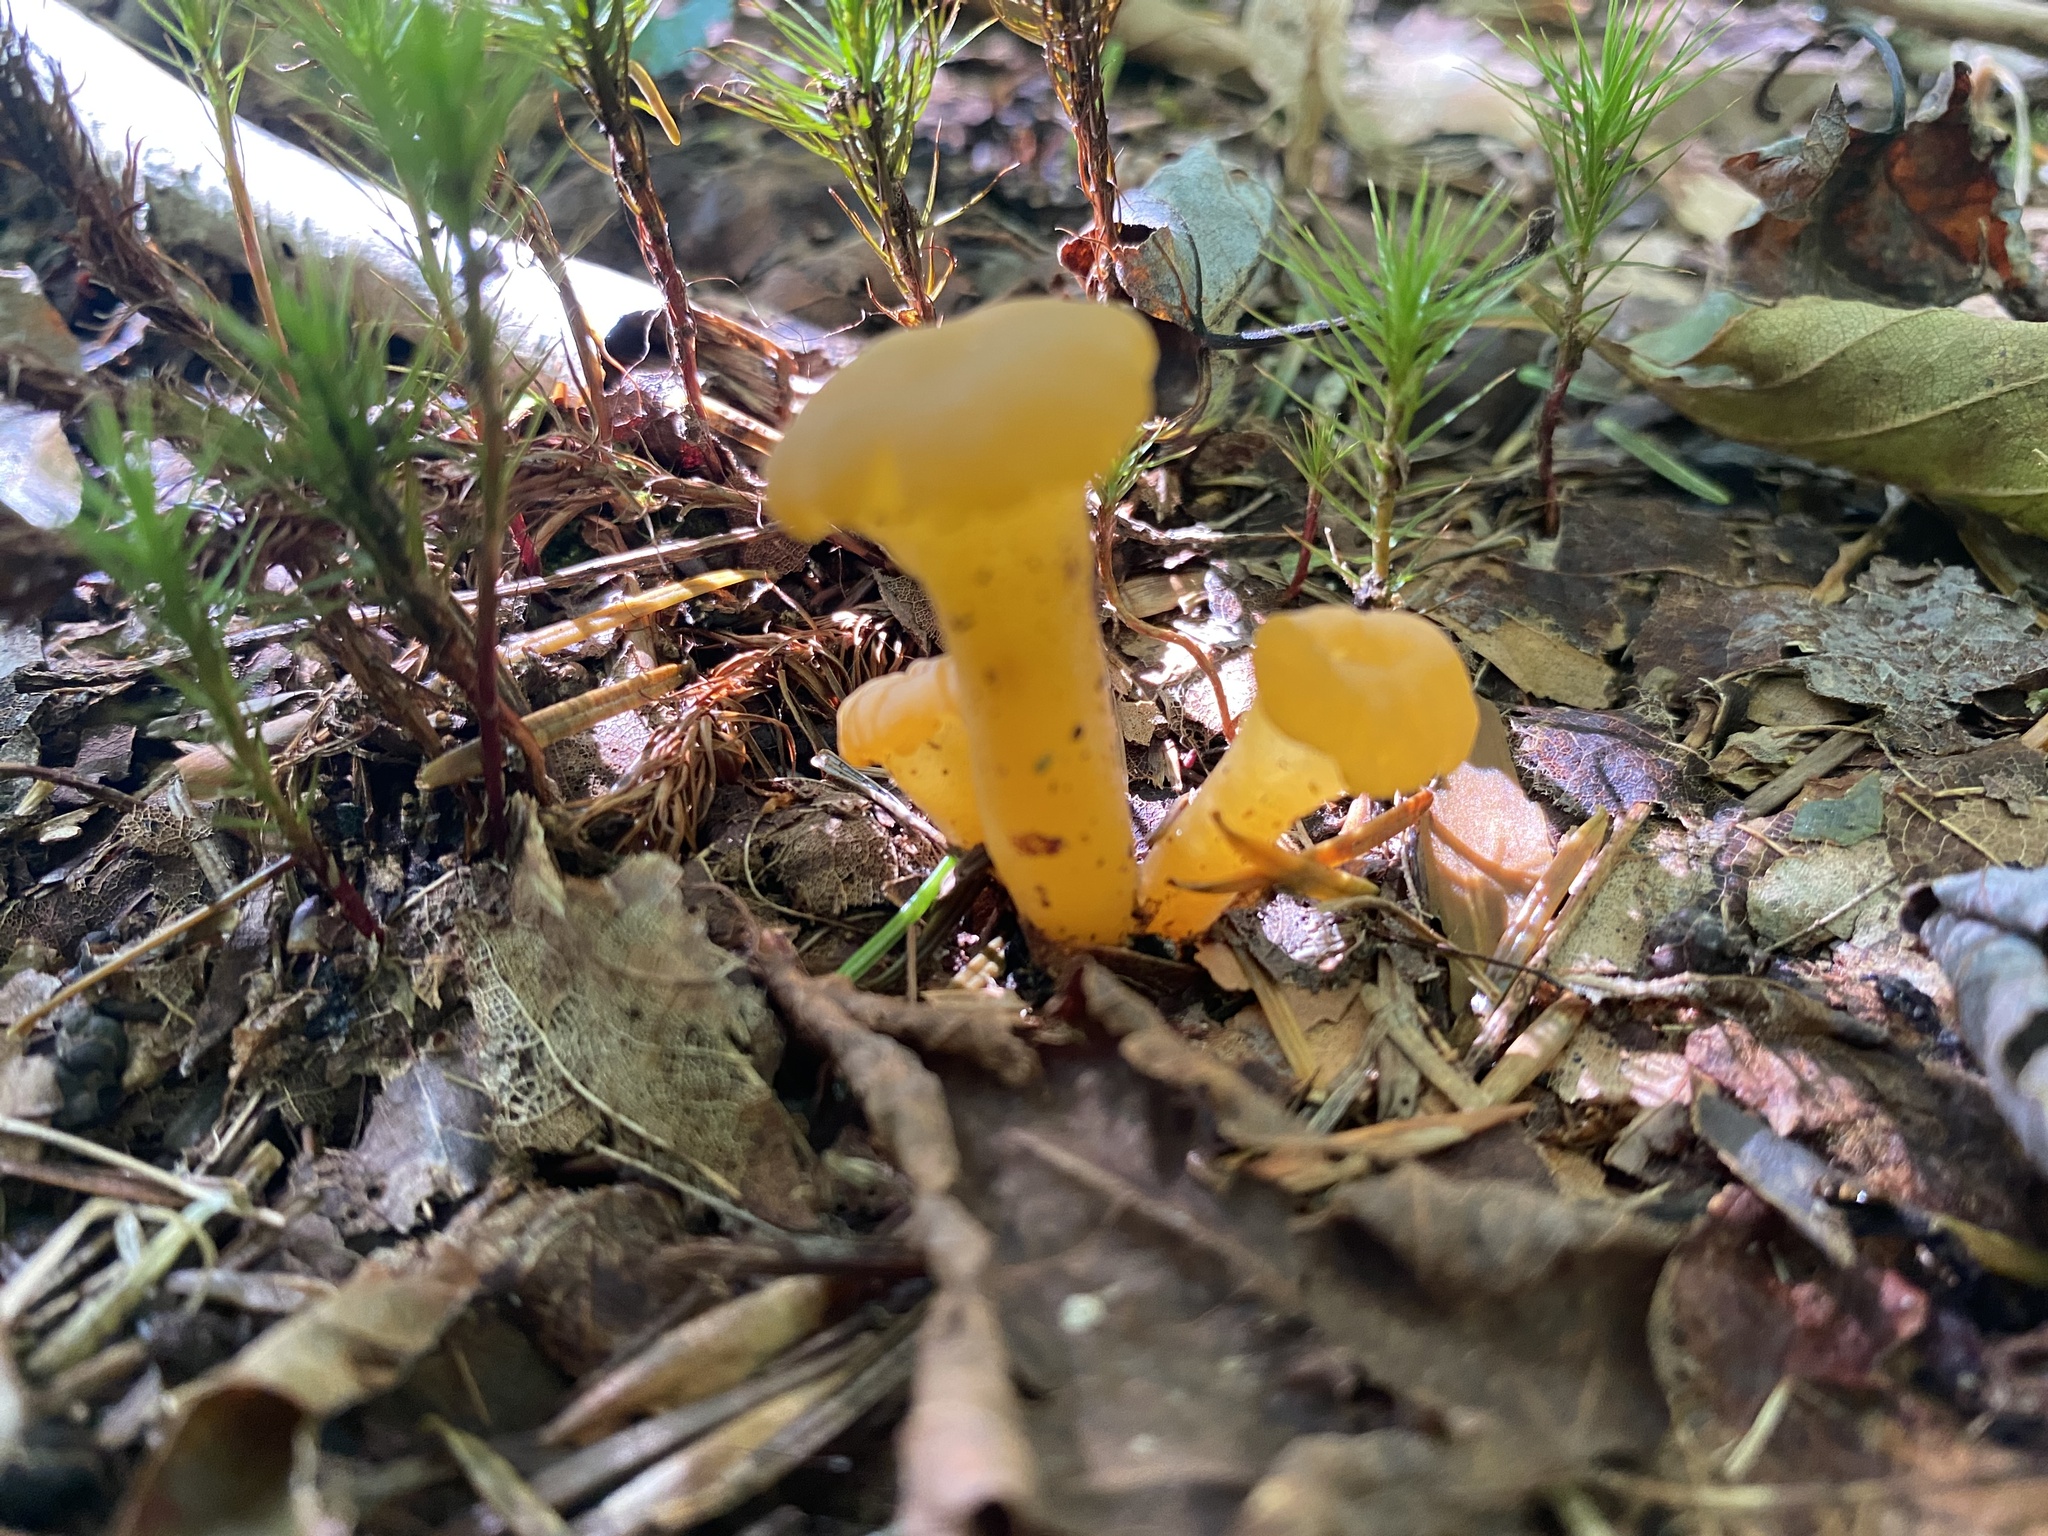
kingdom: Fungi
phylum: Ascomycota
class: Leotiomycetes
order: Leotiales
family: Leotiaceae
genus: Leotia
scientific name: Leotia lubrica
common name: Jellybaby
